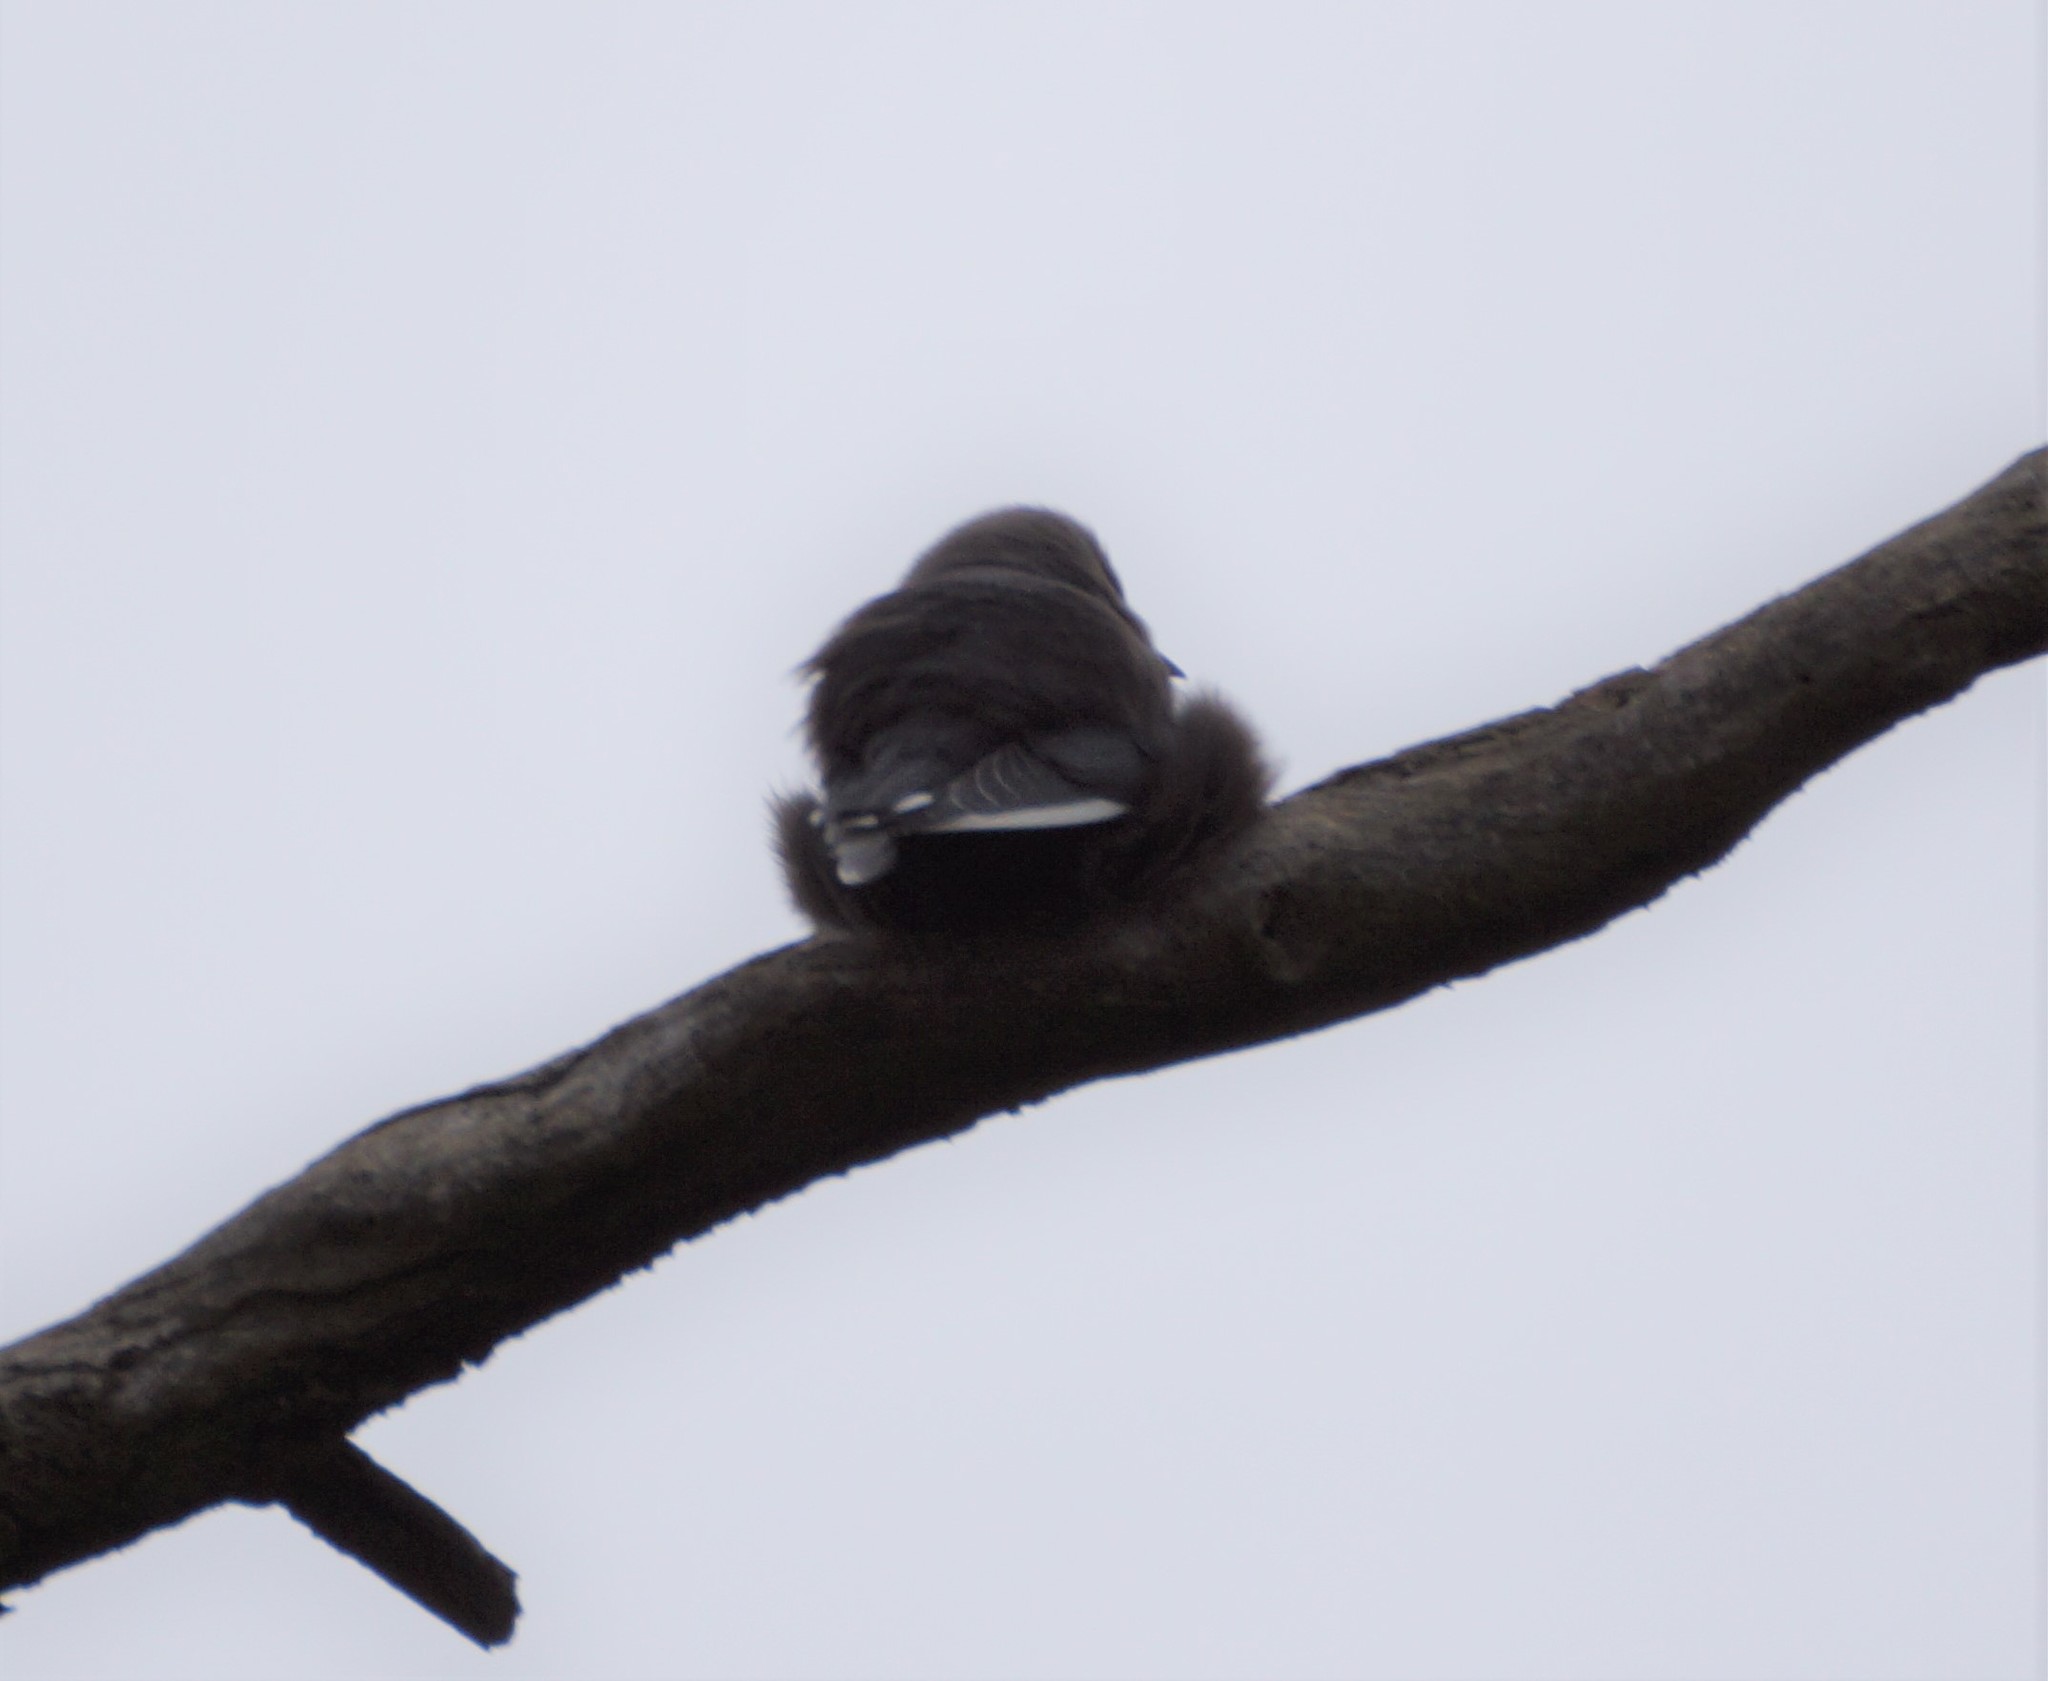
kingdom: Animalia
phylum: Chordata
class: Aves
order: Passeriformes
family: Artamidae
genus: Artamus
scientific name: Artamus cyanopterus
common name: Dusky woodswallow
